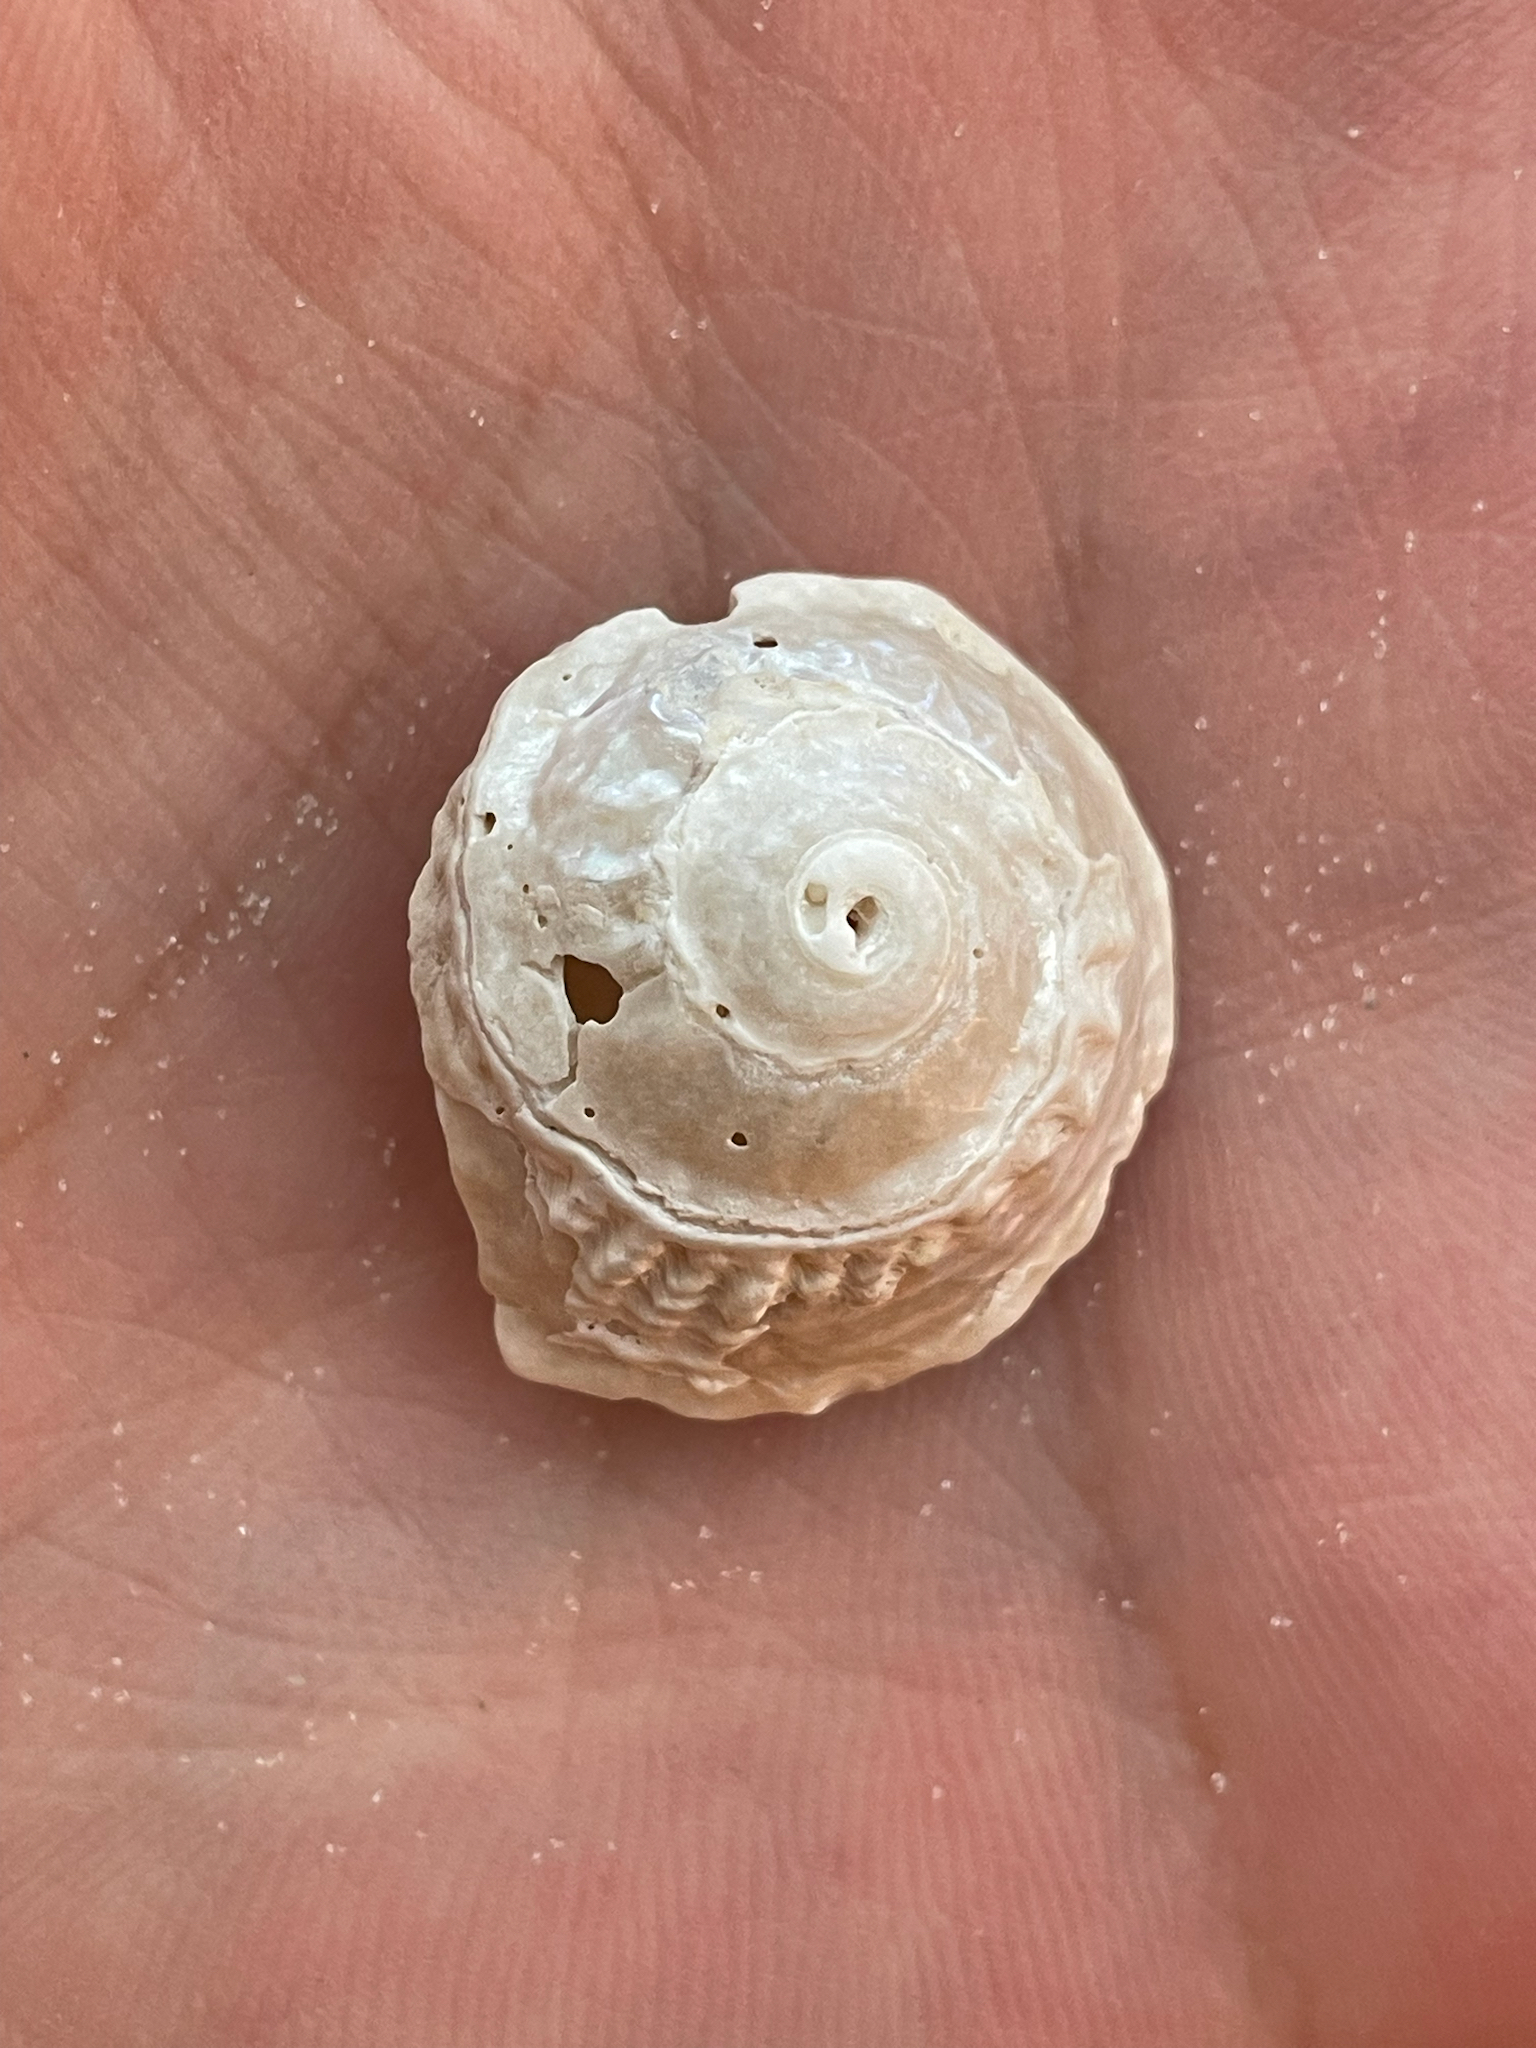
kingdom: Animalia
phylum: Mollusca
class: Gastropoda
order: Trochida
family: Turbinidae
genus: Lithopoma
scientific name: Lithopoma phoebium
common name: Long-spined starsnail
